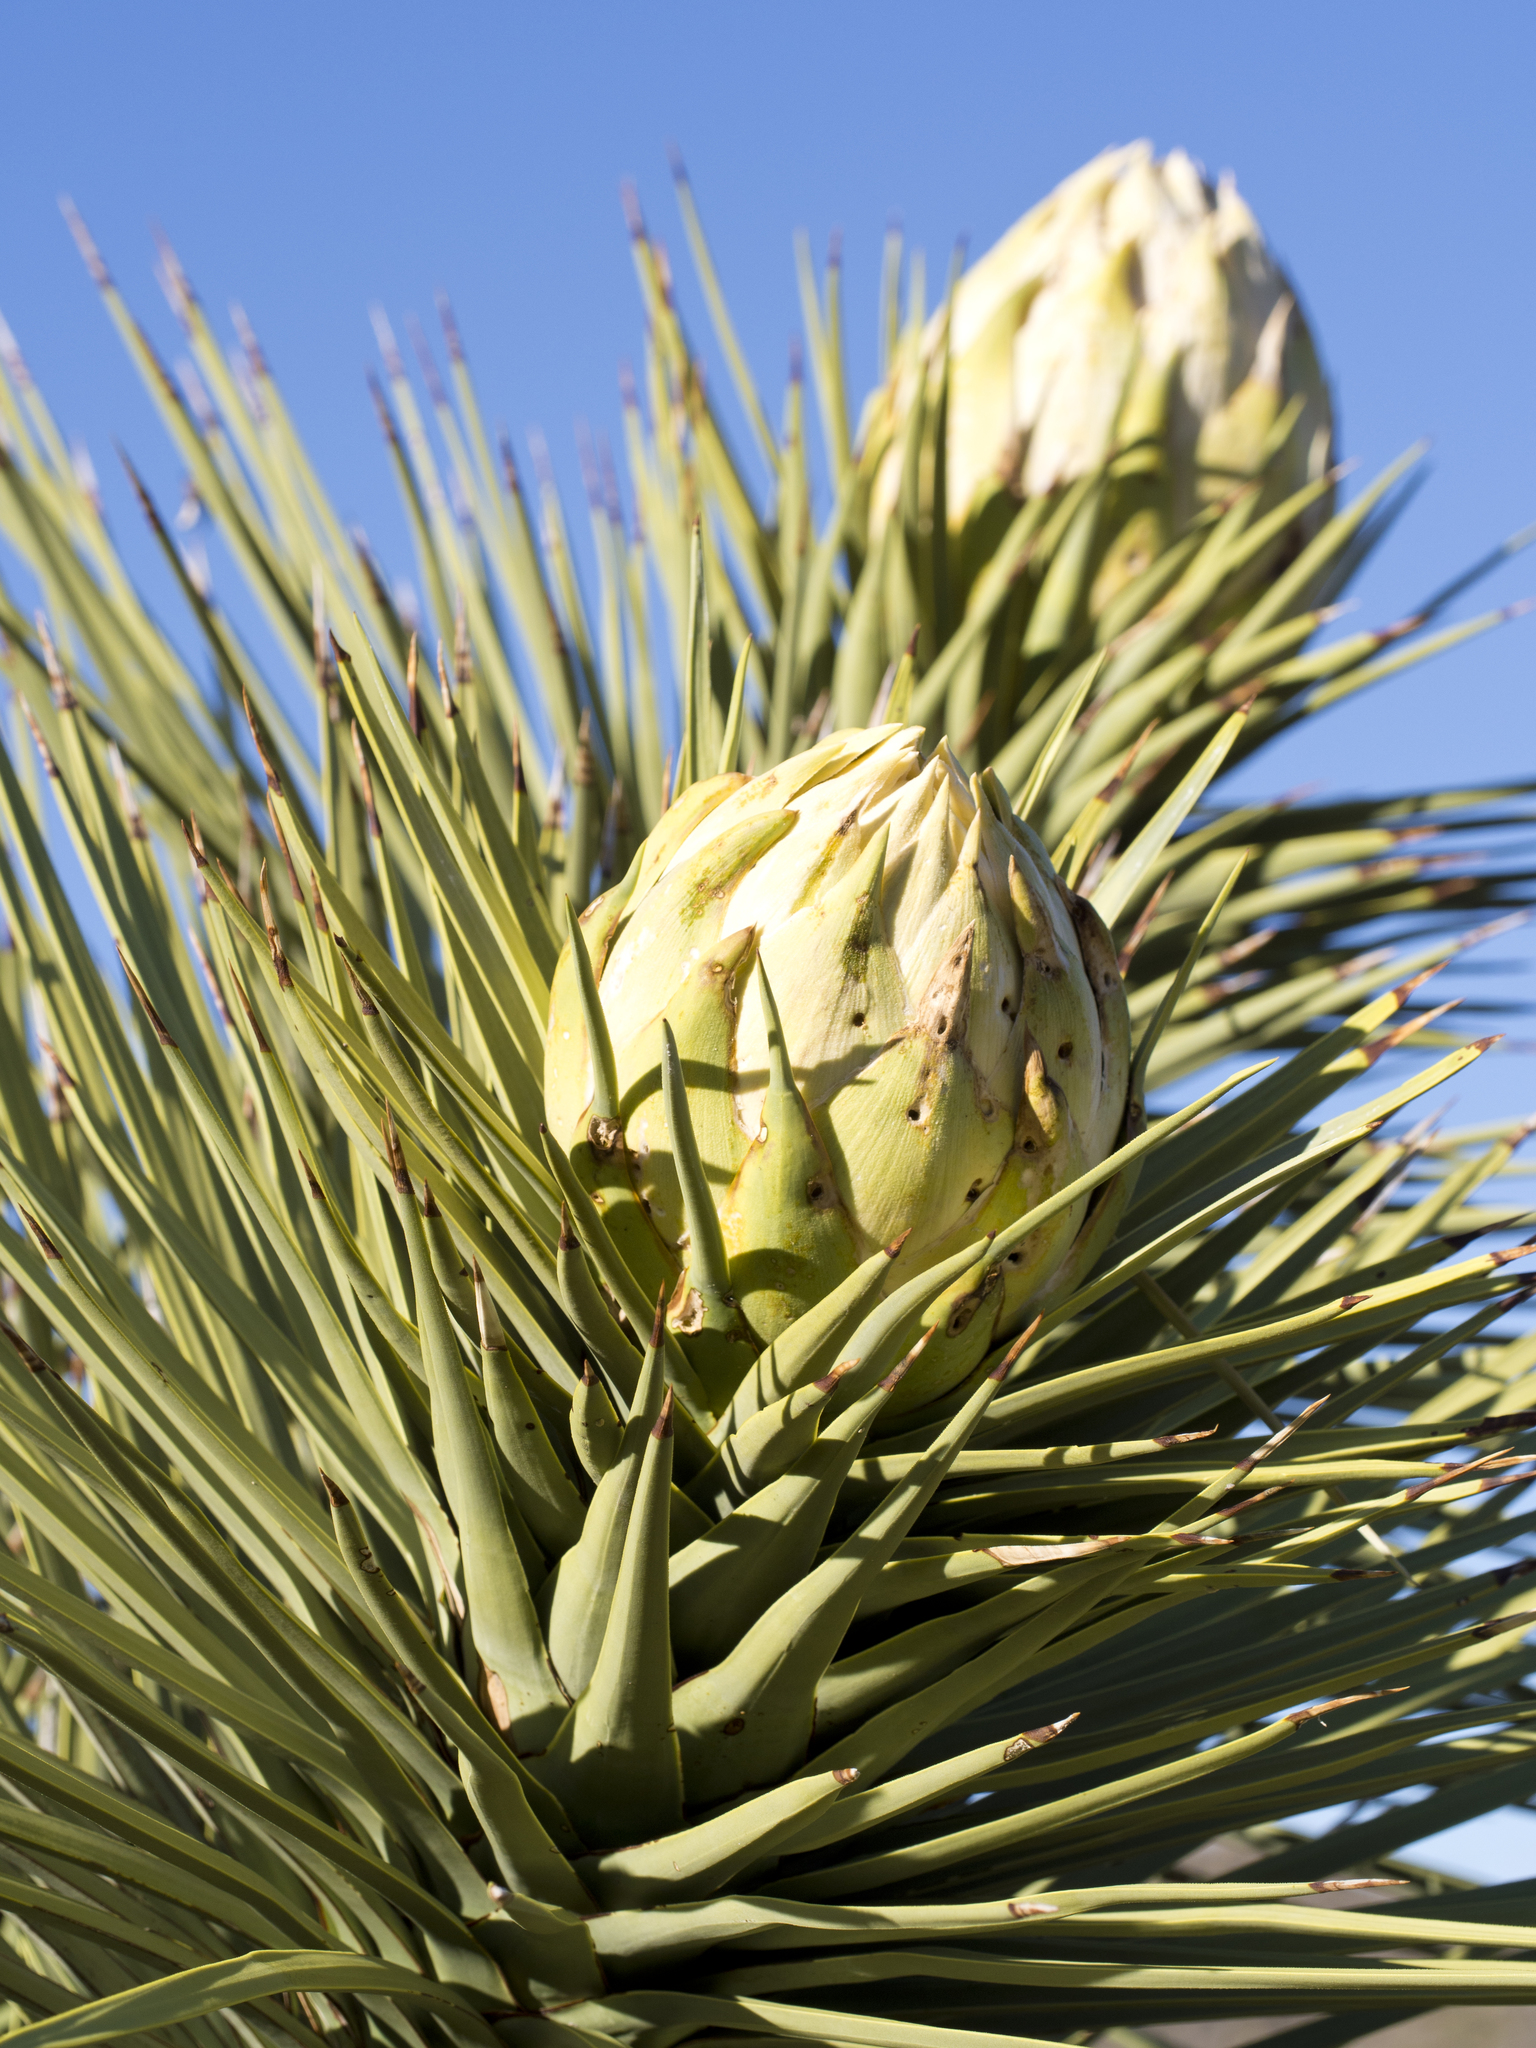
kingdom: Plantae
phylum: Tracheophyta
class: Liliopsida
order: Asparagales
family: Asparagaceae
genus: Yucca
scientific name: Yucca brevifolia
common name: Joshua tree
